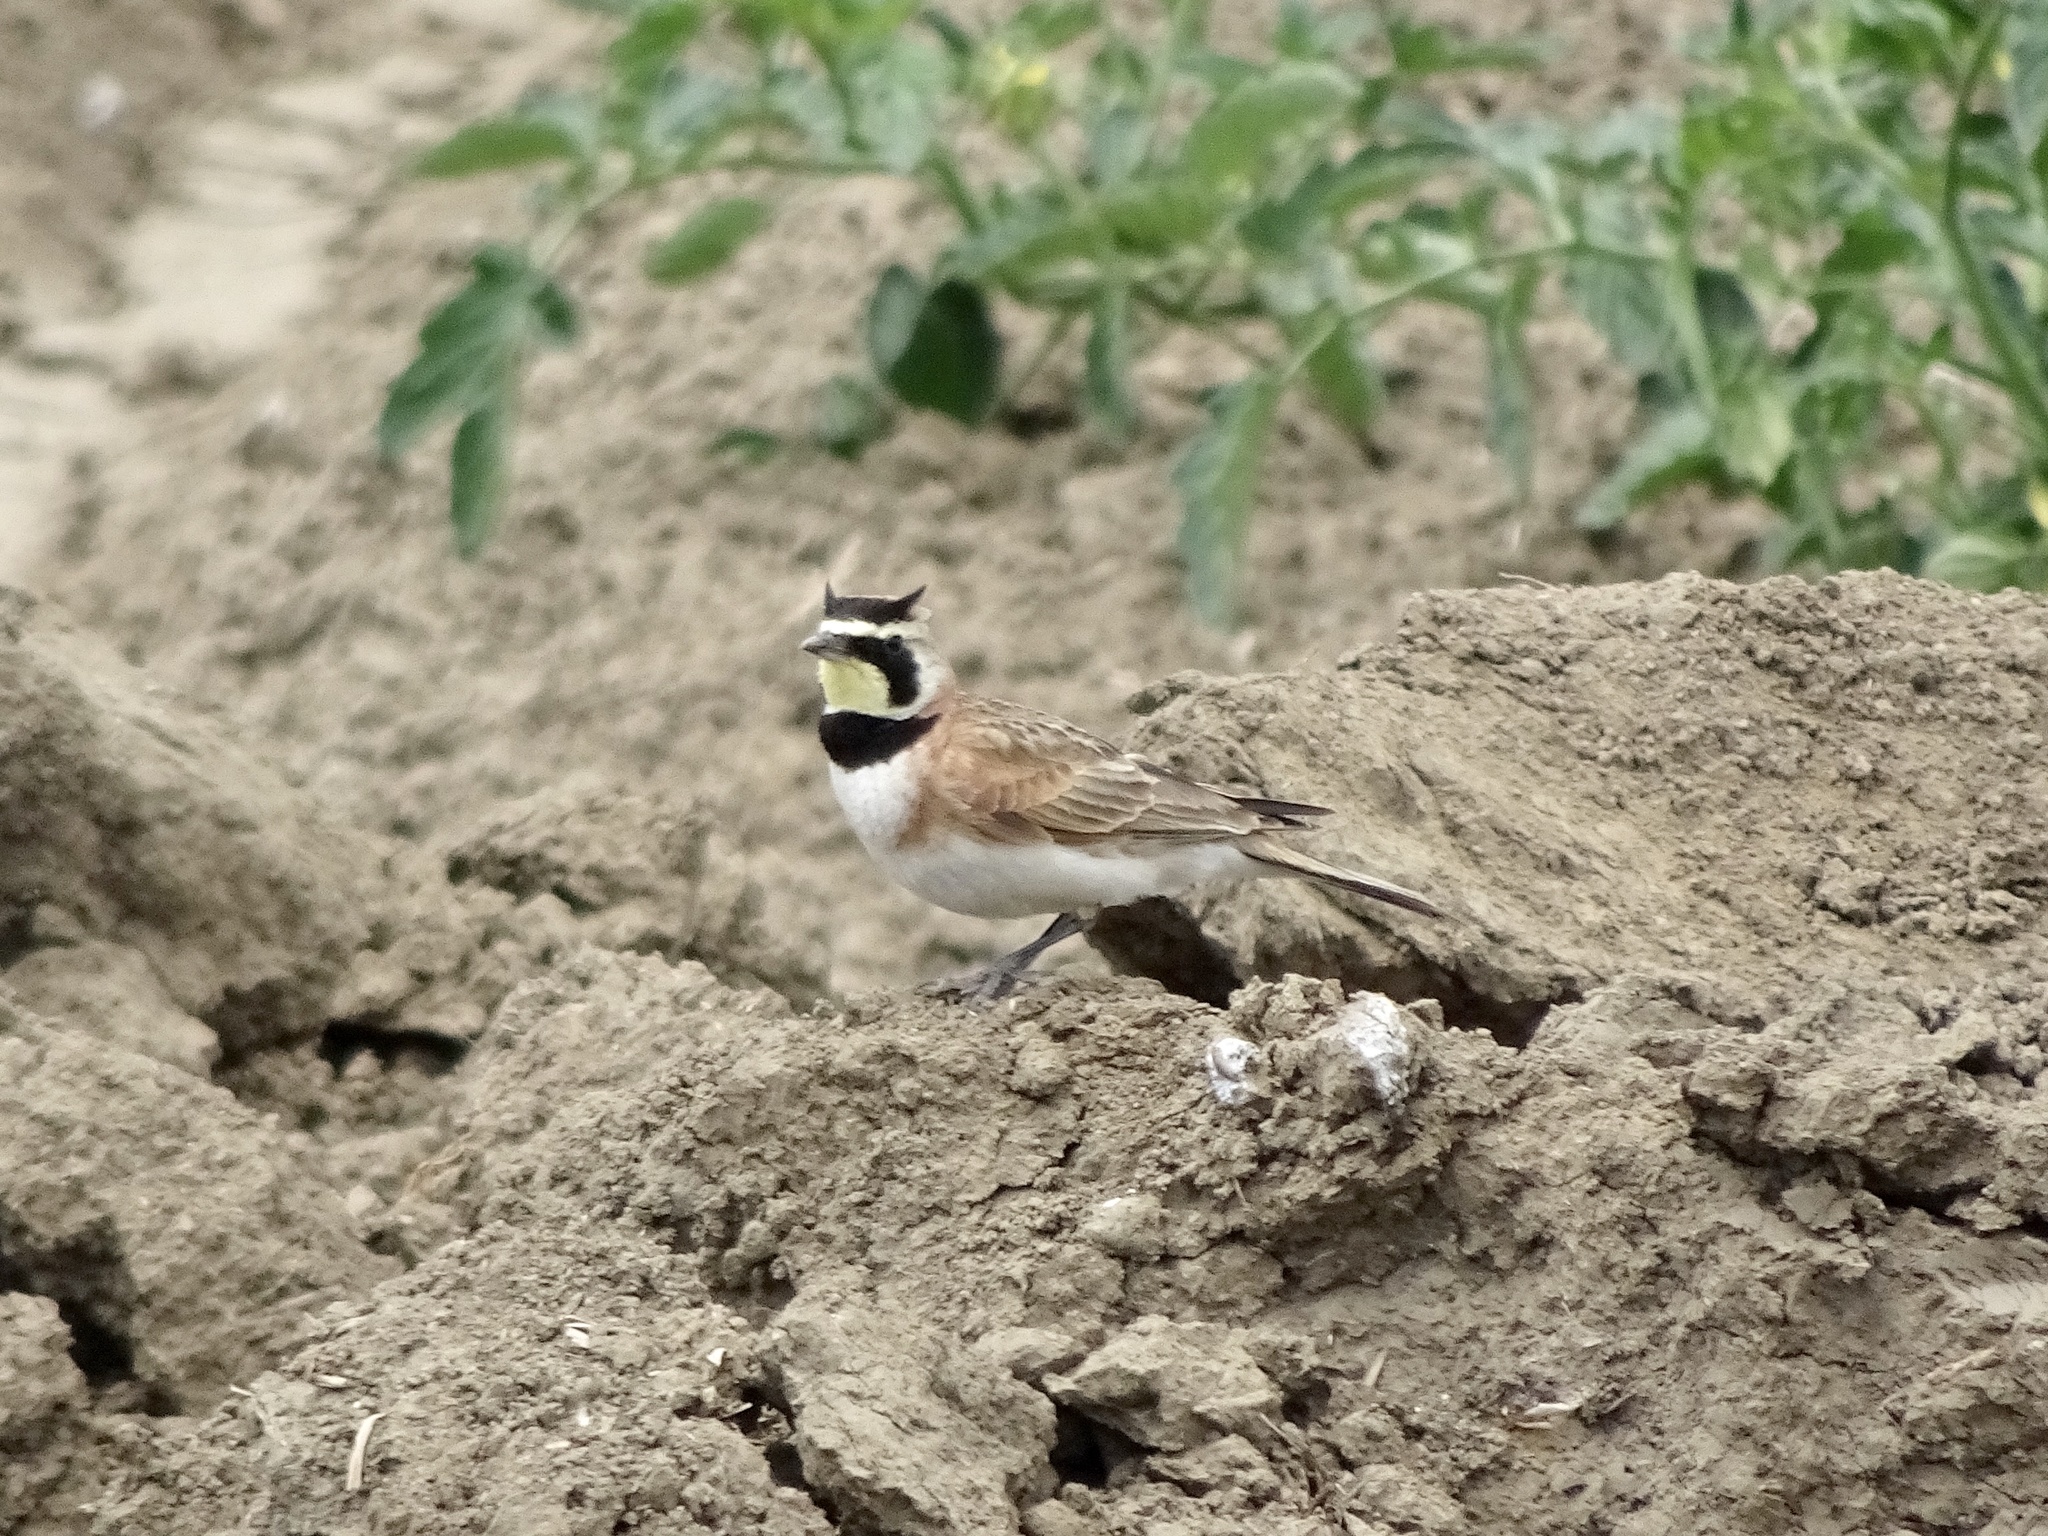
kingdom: Animalia
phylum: Chordata
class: Aves
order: Passeriformes
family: Alaudidae
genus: Eremophila
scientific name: Eremophila alpestris
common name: Horned lark
